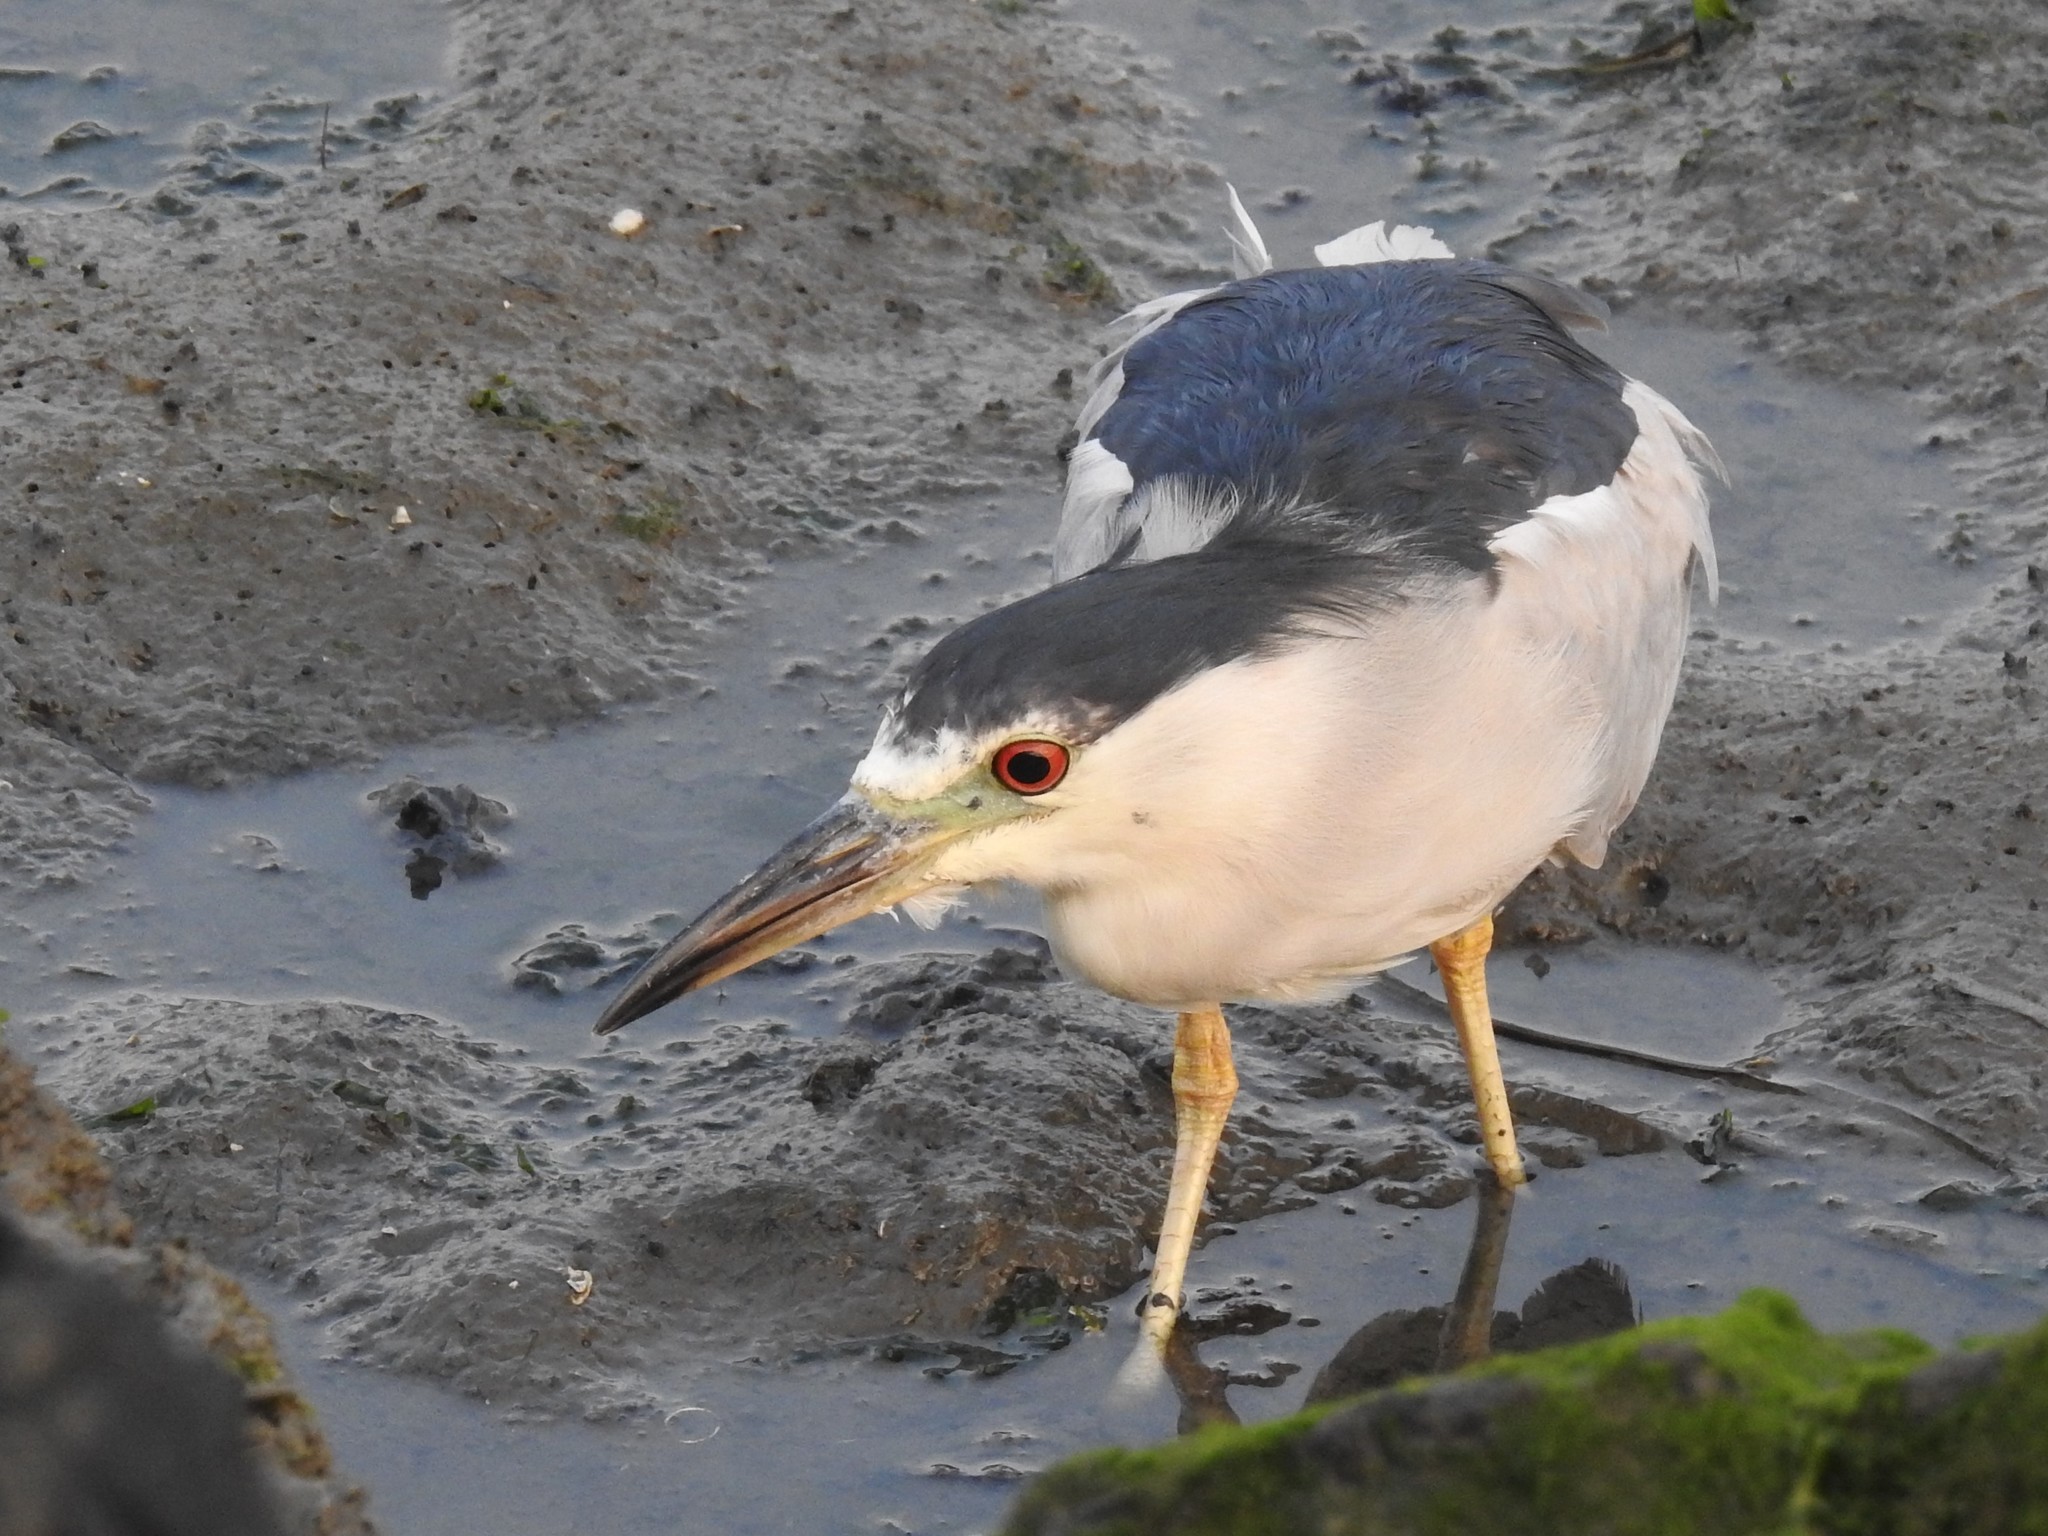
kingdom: Animalia
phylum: Chordata
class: Aves
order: Pelecaniformes
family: Ardeidae
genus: Nycticorax
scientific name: Nycticorax nycticorax
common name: Black-crowned night heron
